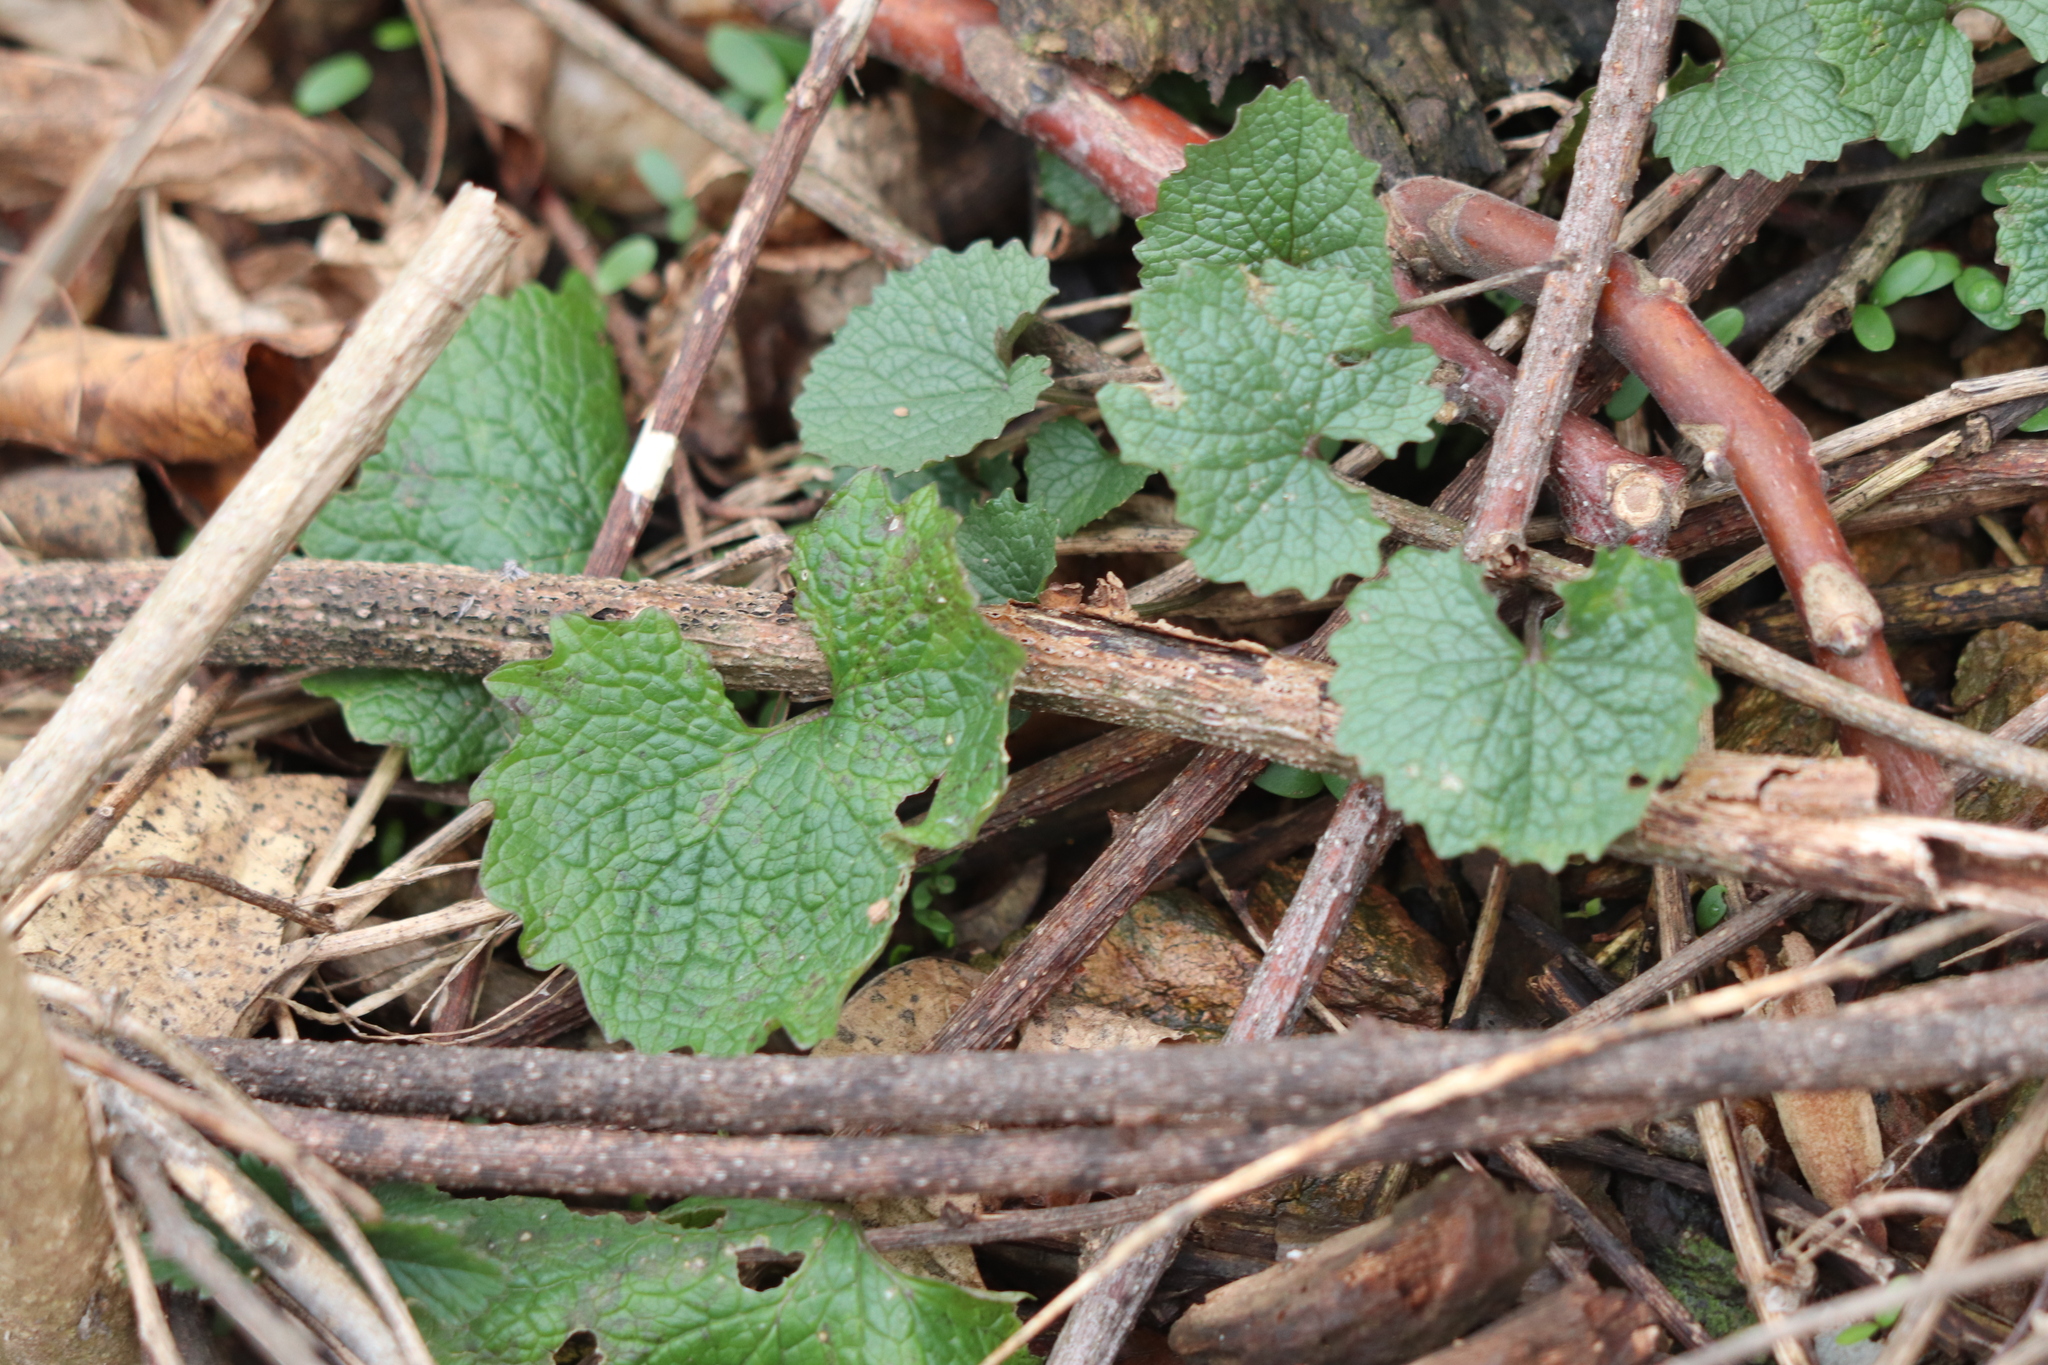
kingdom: Plantae
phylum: Tracheophyta
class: Magnoliopsida
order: Brassicales
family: Brassicaceae
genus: Alliaria
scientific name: Alliaria petiolata
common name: Garlic mustard
